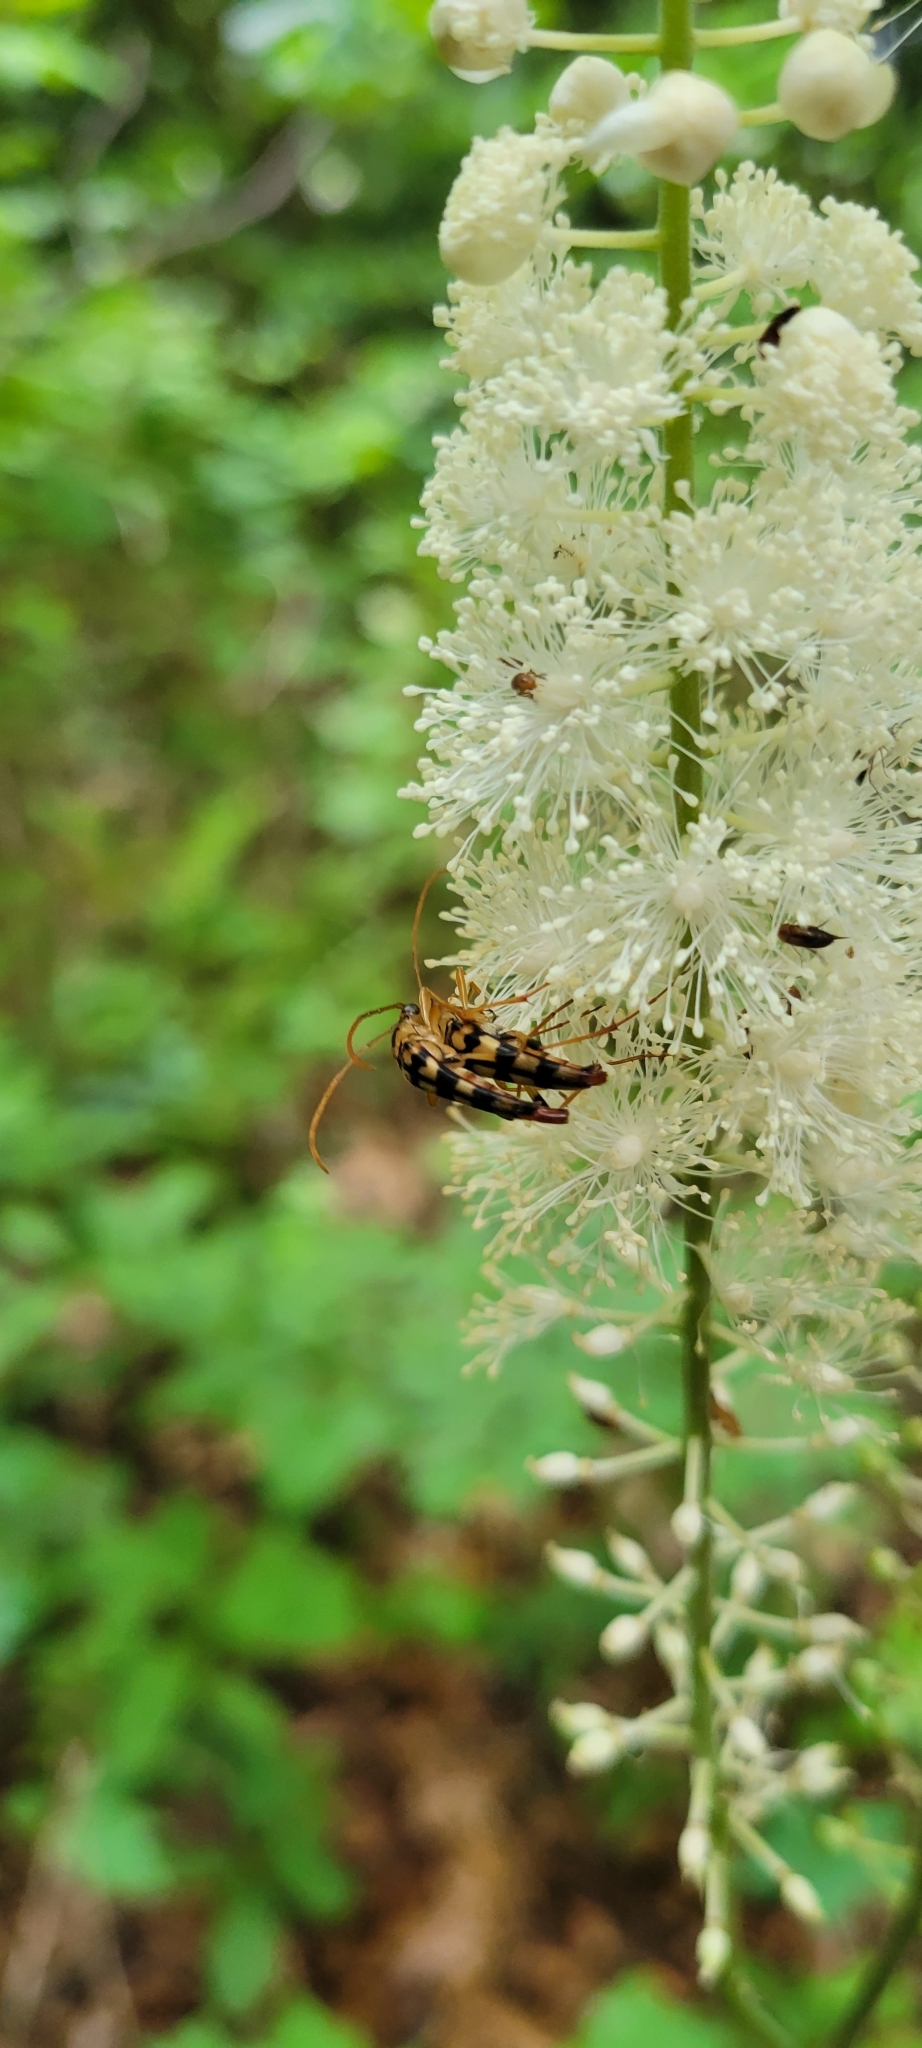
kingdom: Animalia
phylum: Arthropoda
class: Insecta
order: Coleoptera
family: Cerambycidae
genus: Strangalia
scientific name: Strangalia luteicornis
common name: Yellow-horned flower longhorn beetle
